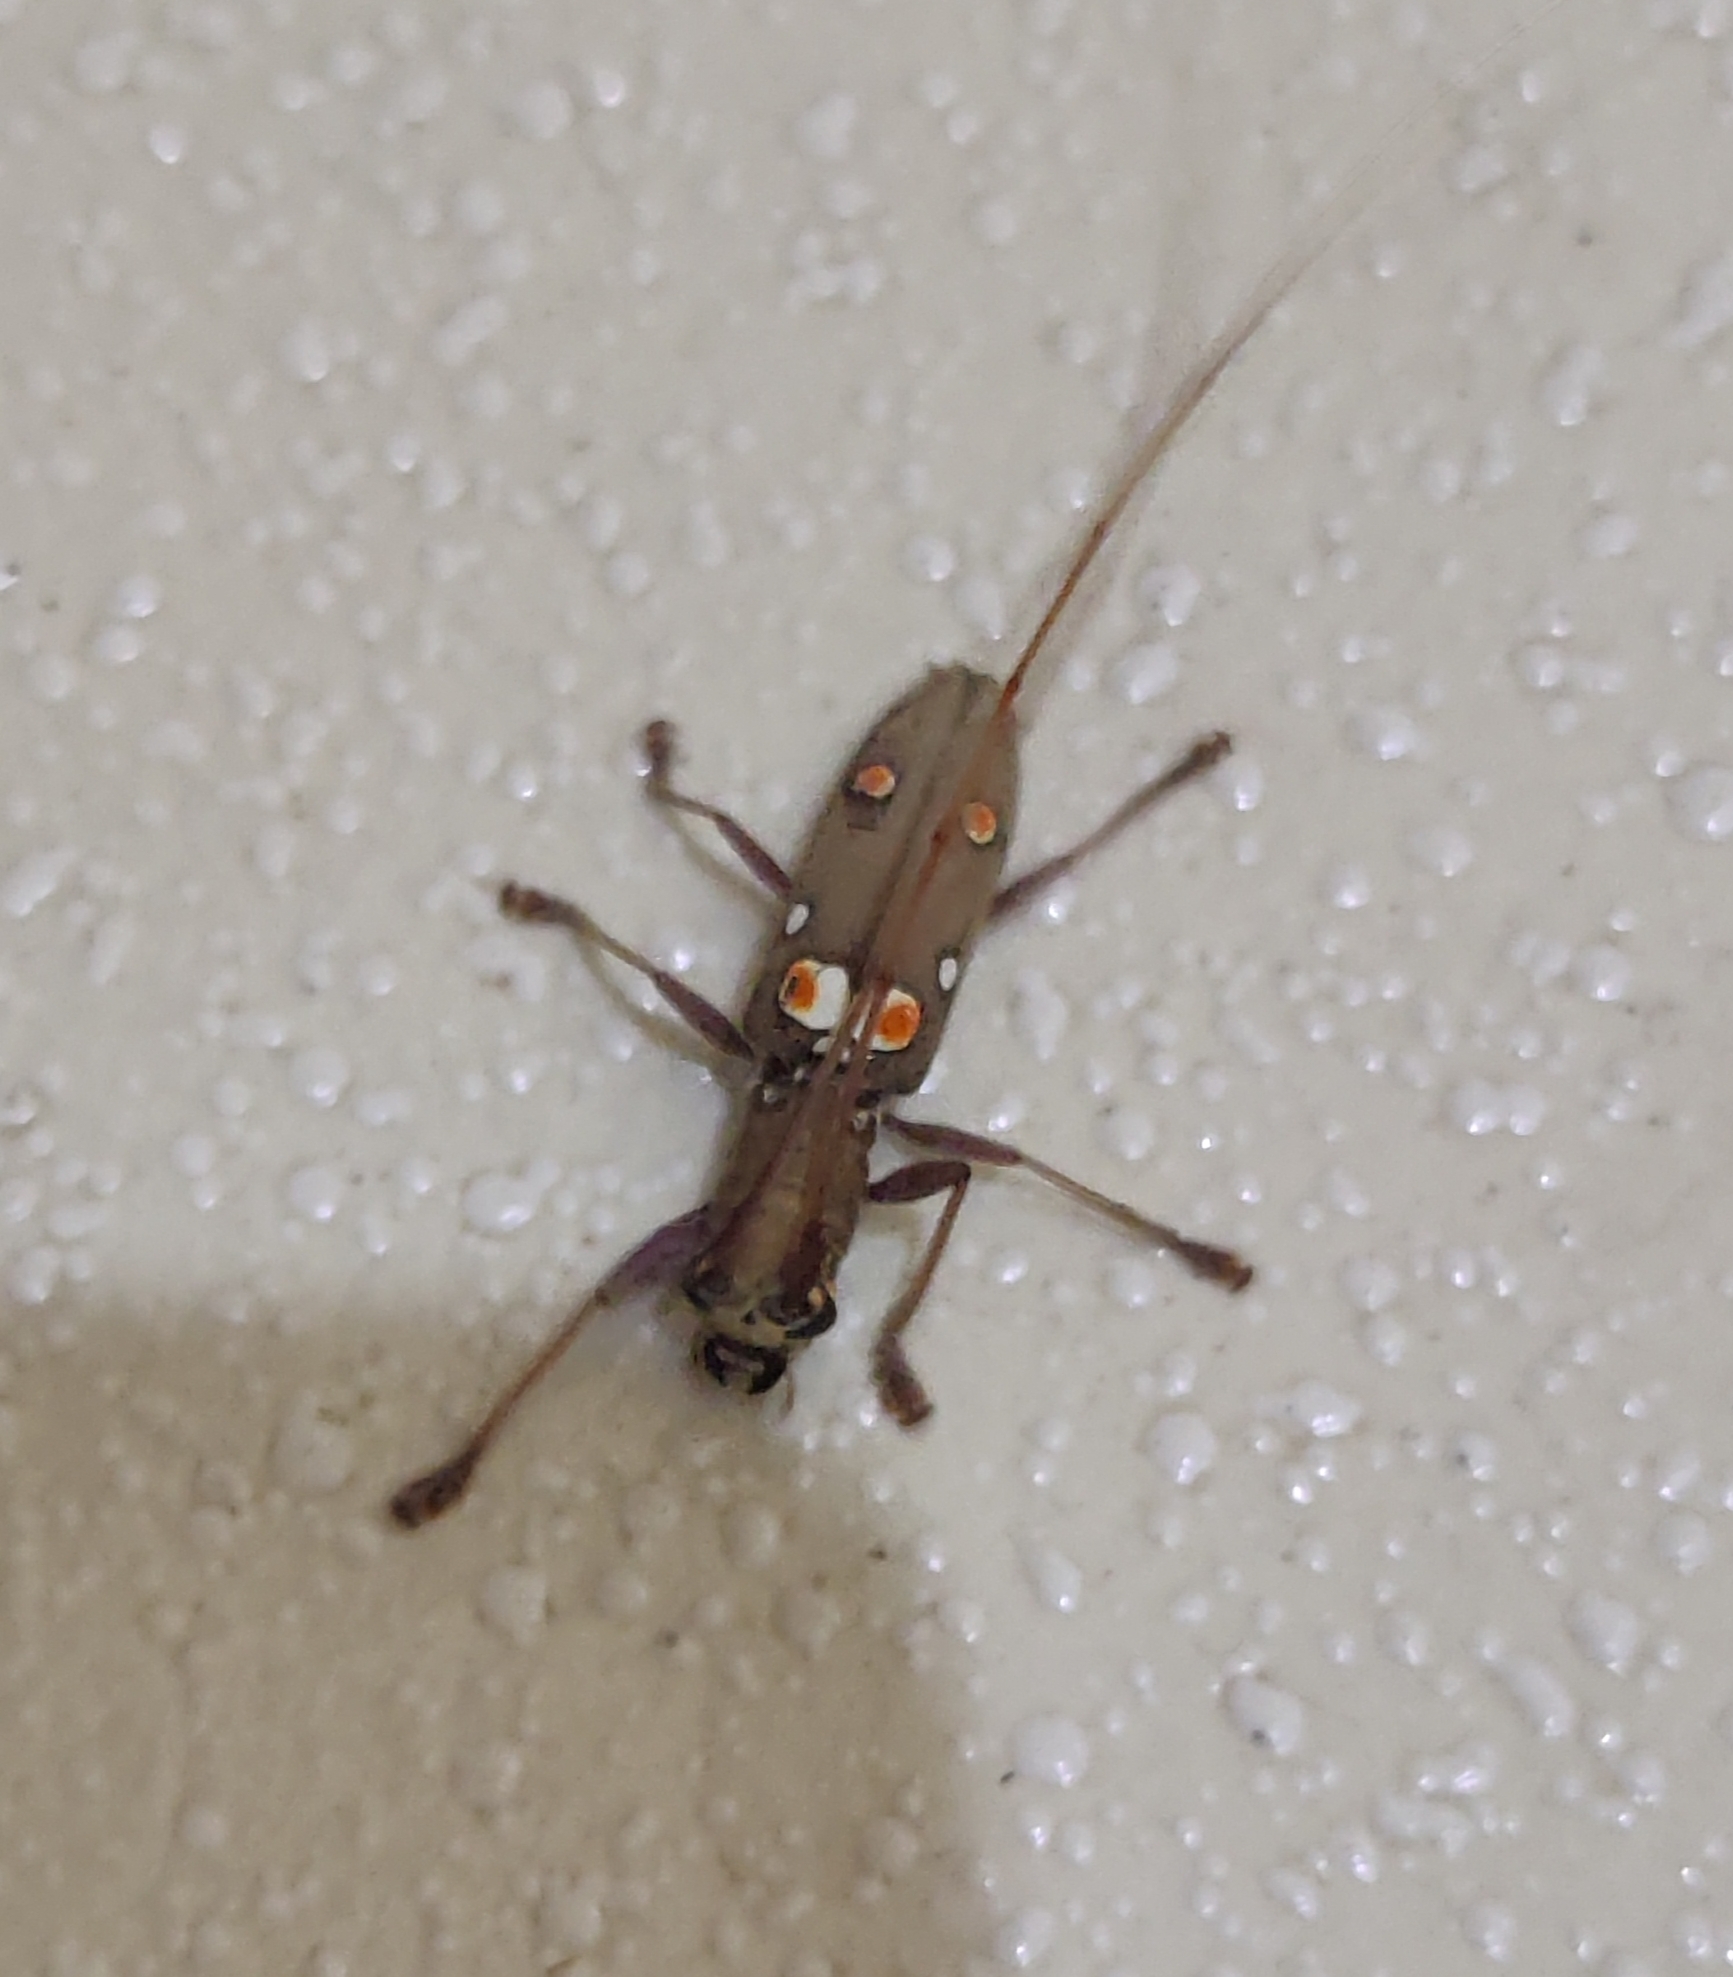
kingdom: Animalia
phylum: Arthropoda
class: Insecta
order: Coleoptera
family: Cerambycidae
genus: Olenecamptus
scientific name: Olenecamptus bilobus
